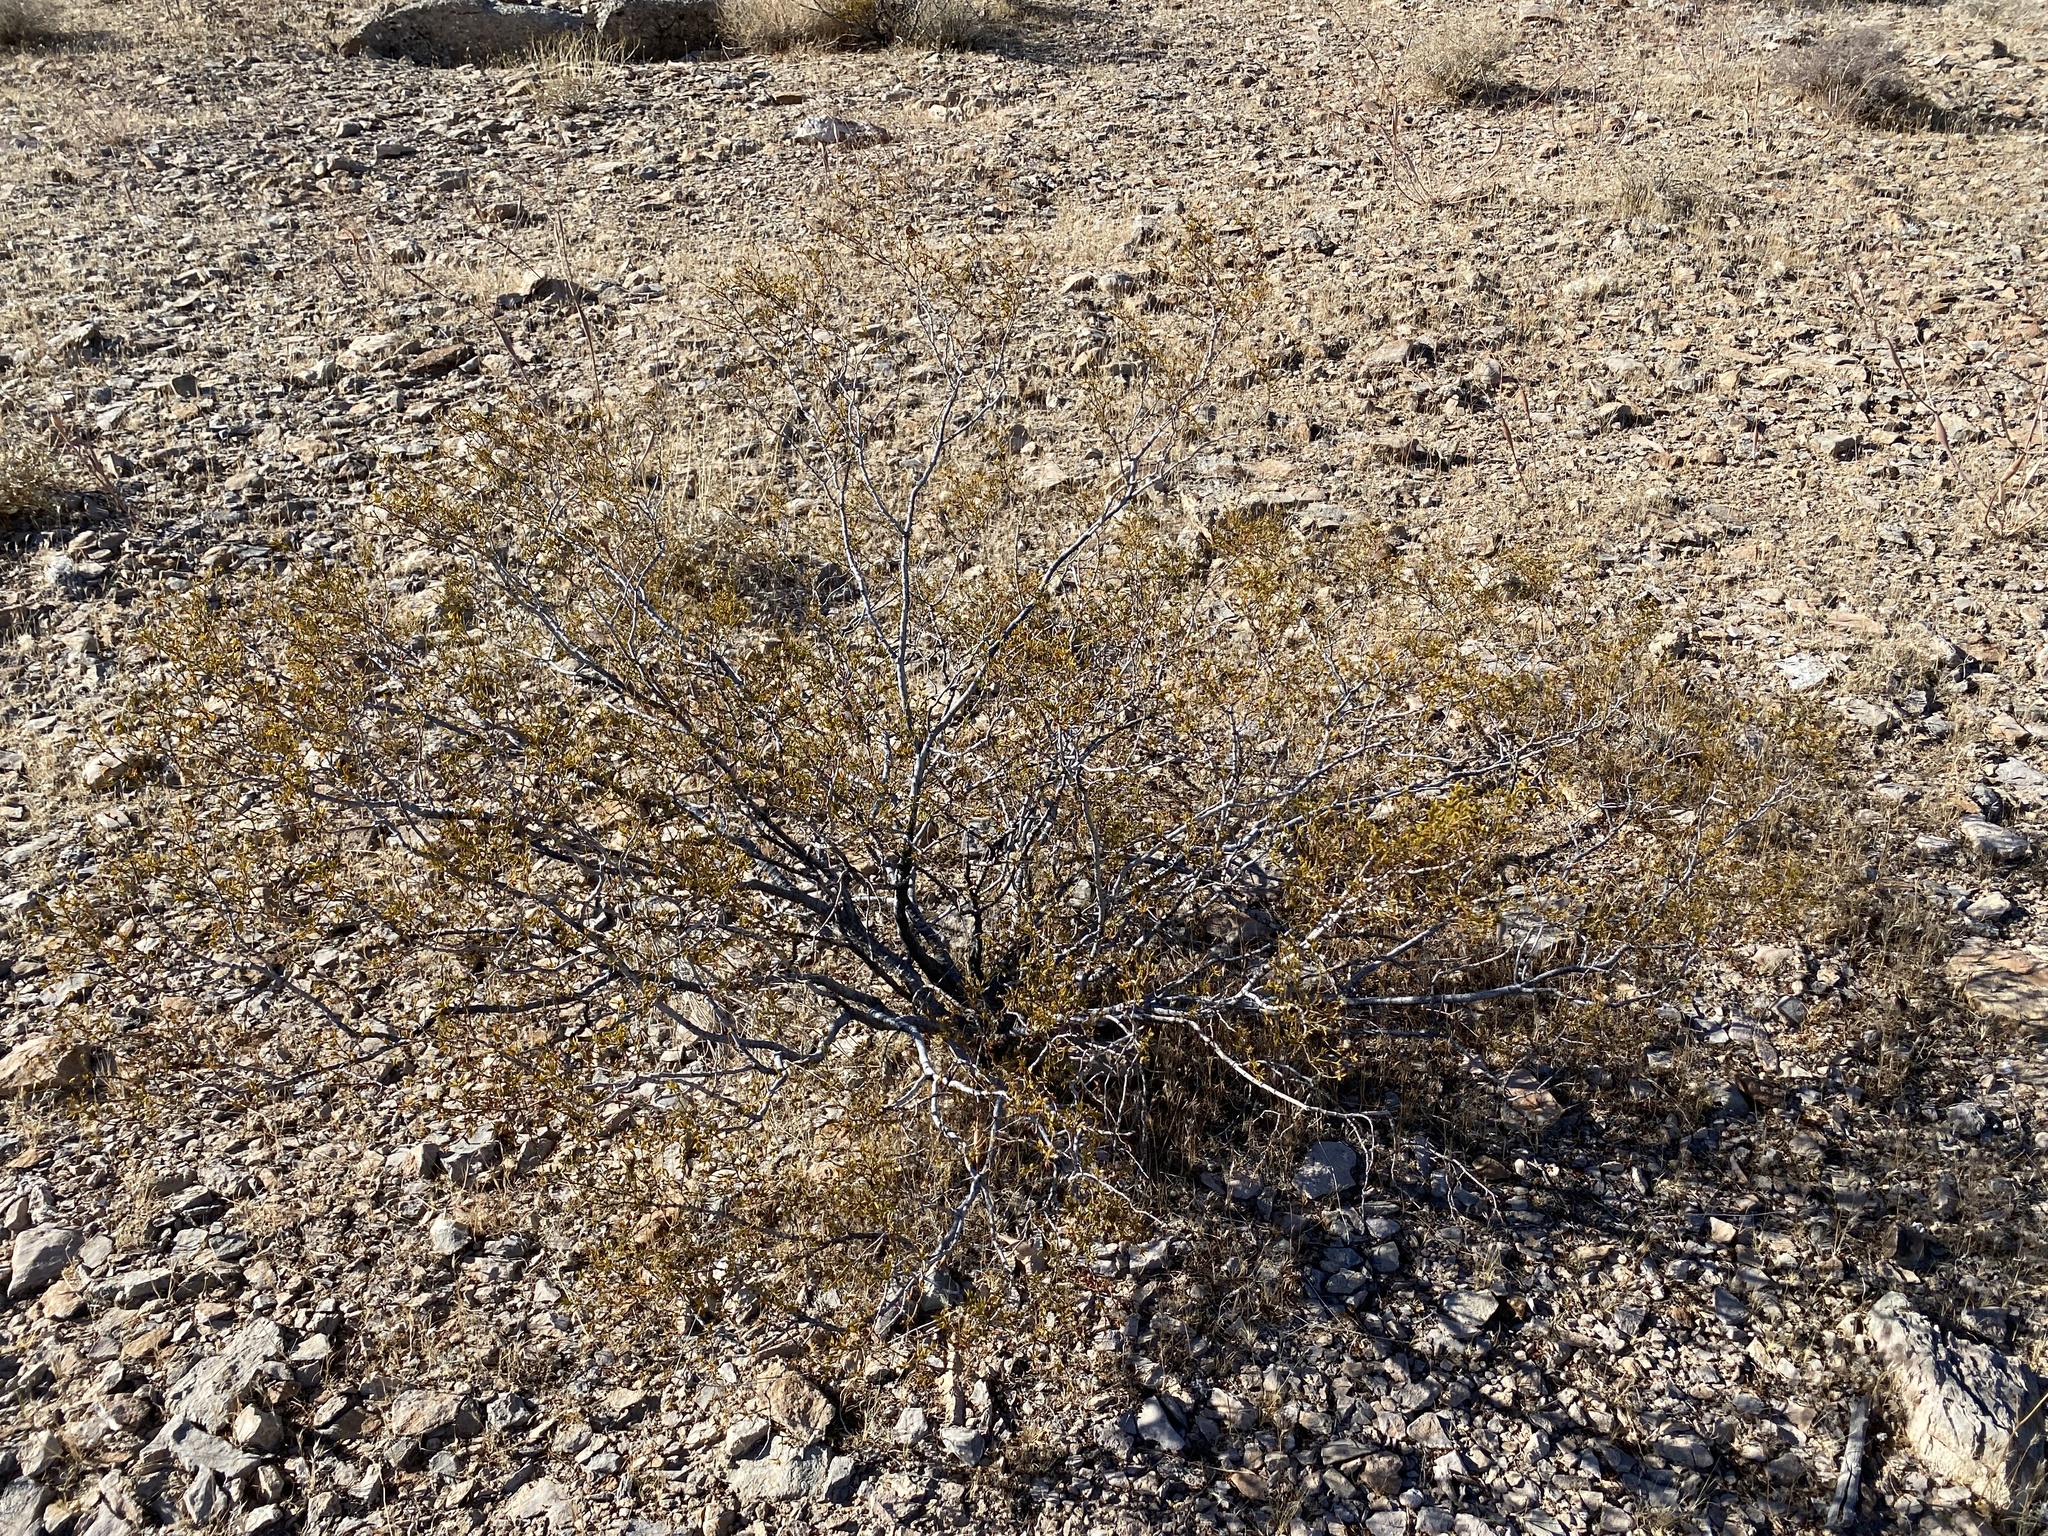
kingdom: Plantae
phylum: Tracheophyta
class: Magnoliopsida
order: Zygophyllales
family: Zygophyllaceae
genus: Larrea
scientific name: Larrea tridentata
